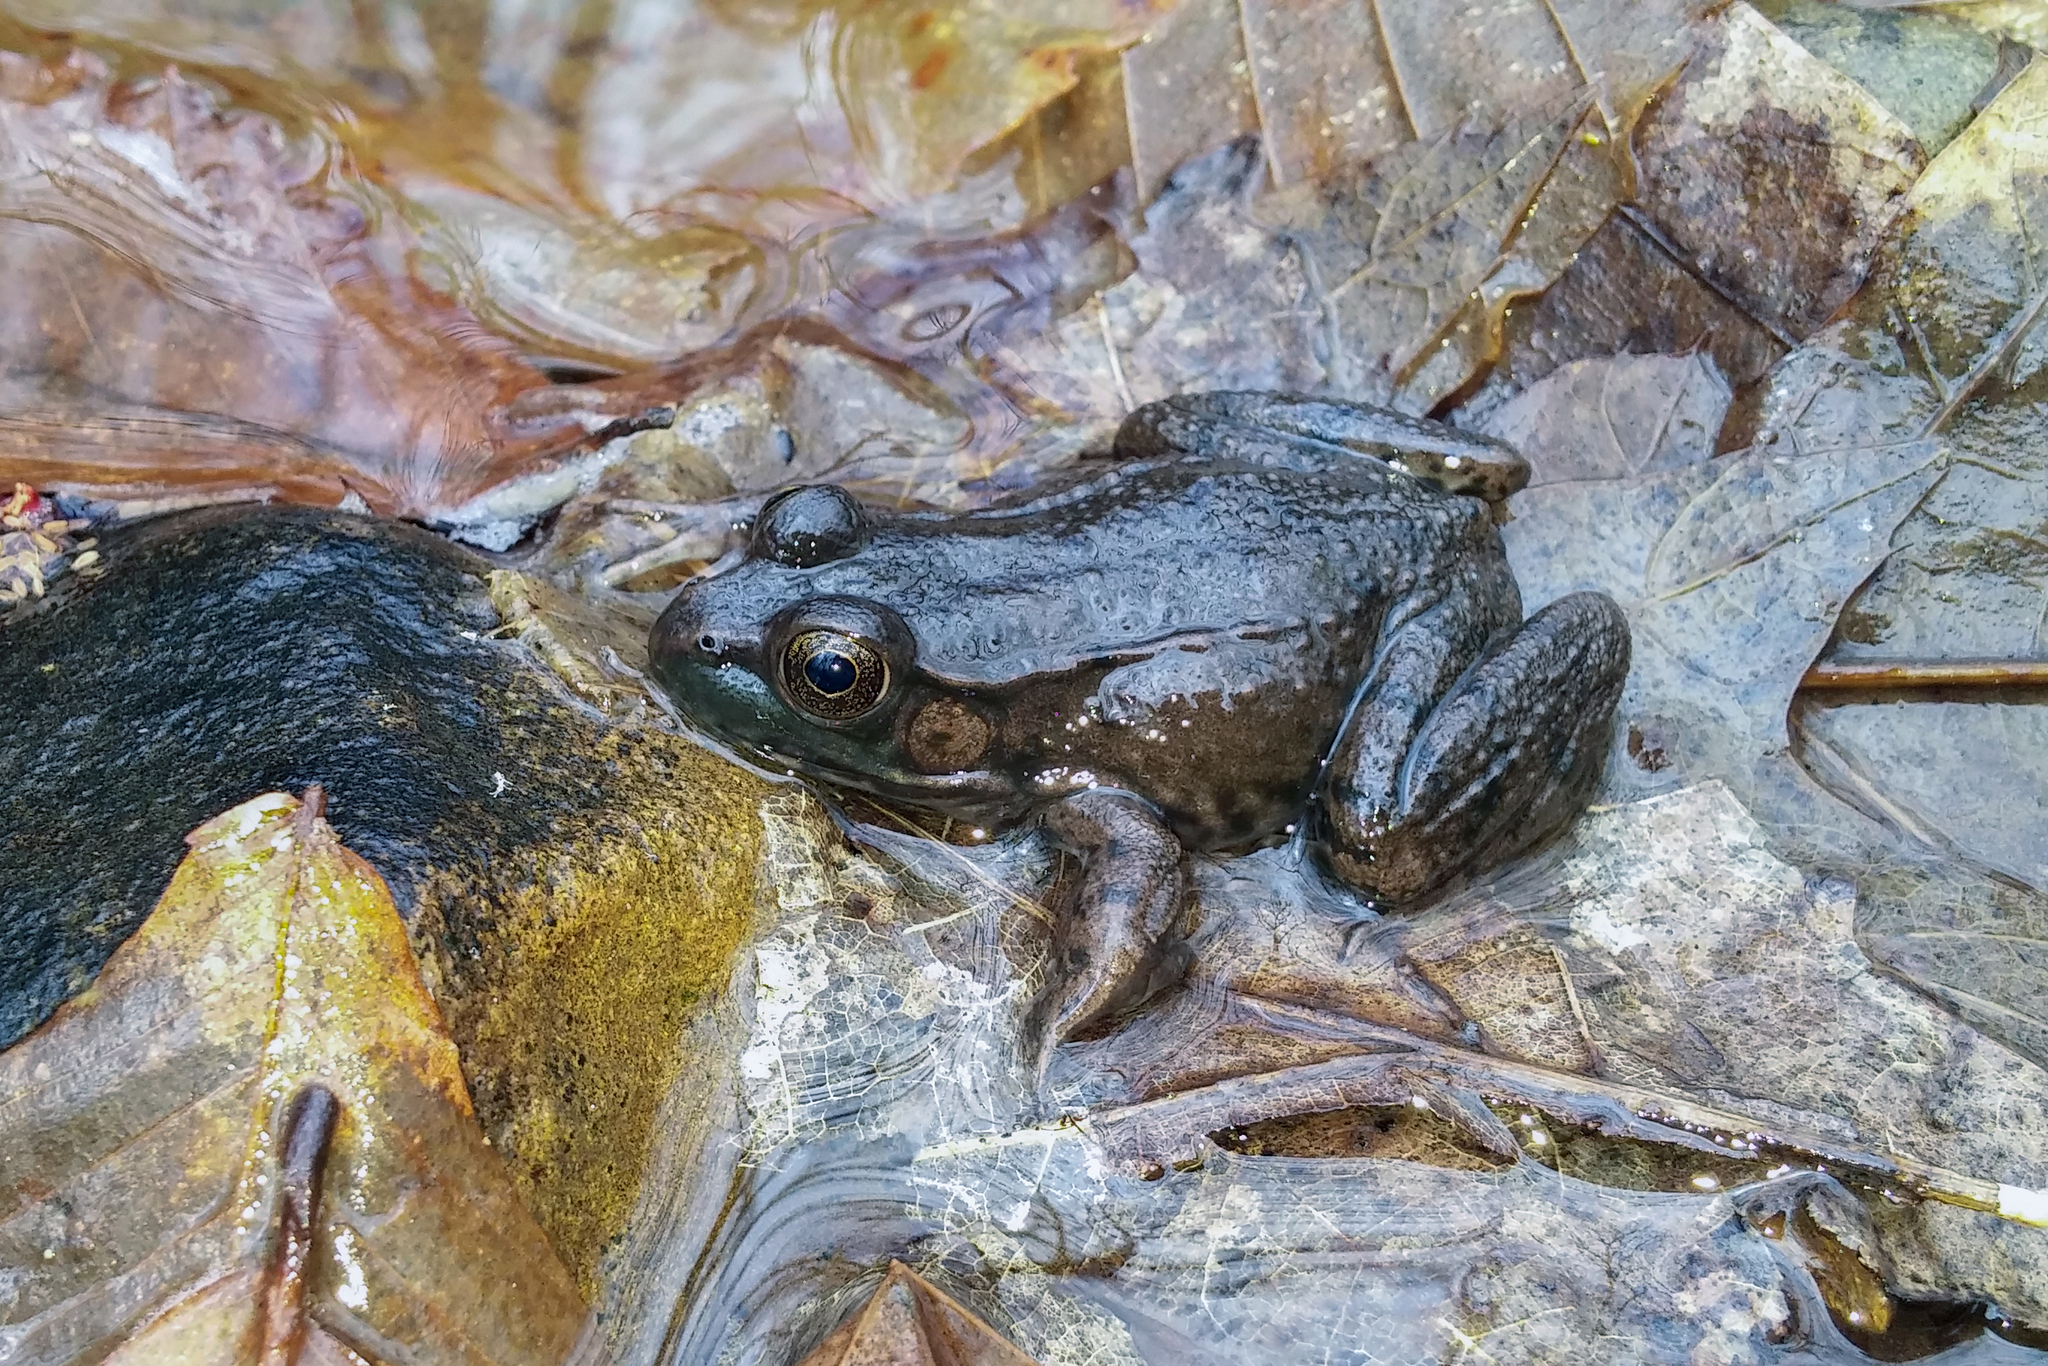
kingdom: Animalia
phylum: Chordata
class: Amphibia
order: Anura
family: Ranidae
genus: Lithobates
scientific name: Lithobates clamitans
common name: Green frog
